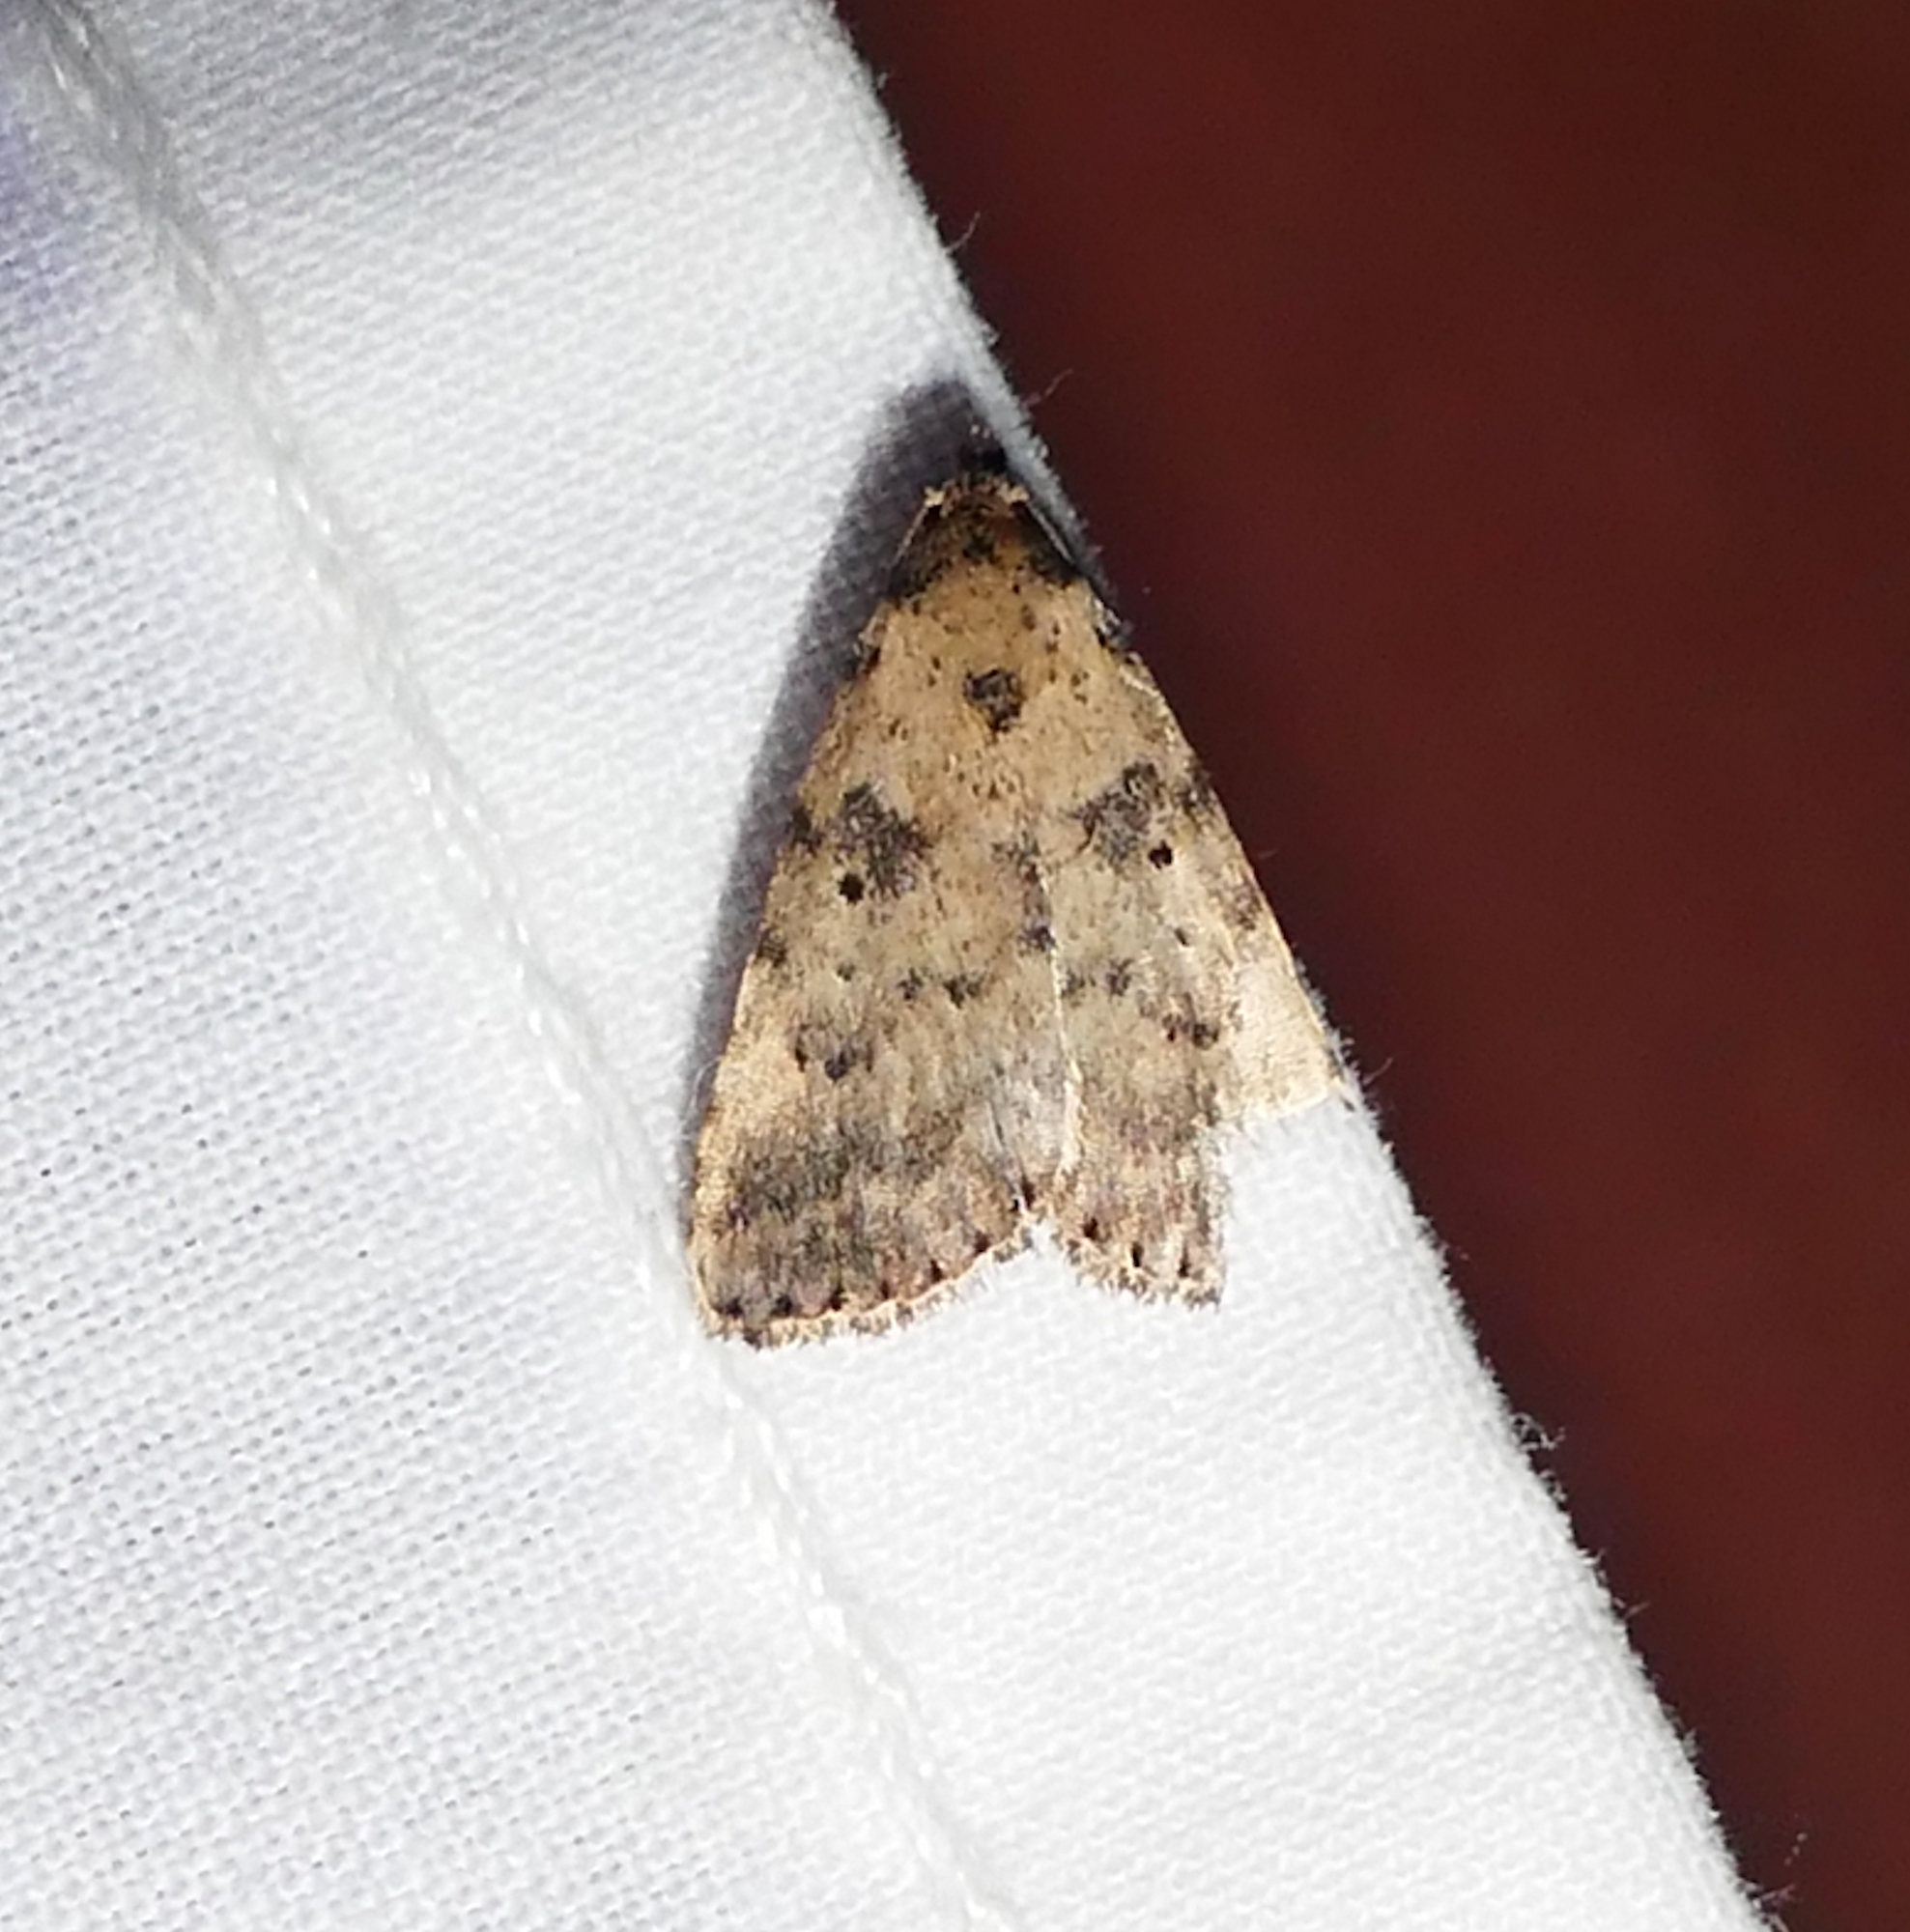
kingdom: Animalia
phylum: Arthropoda
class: Insecta
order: Lepidoptera
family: Erebidae
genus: Arugisa
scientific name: Arugisa lutea
